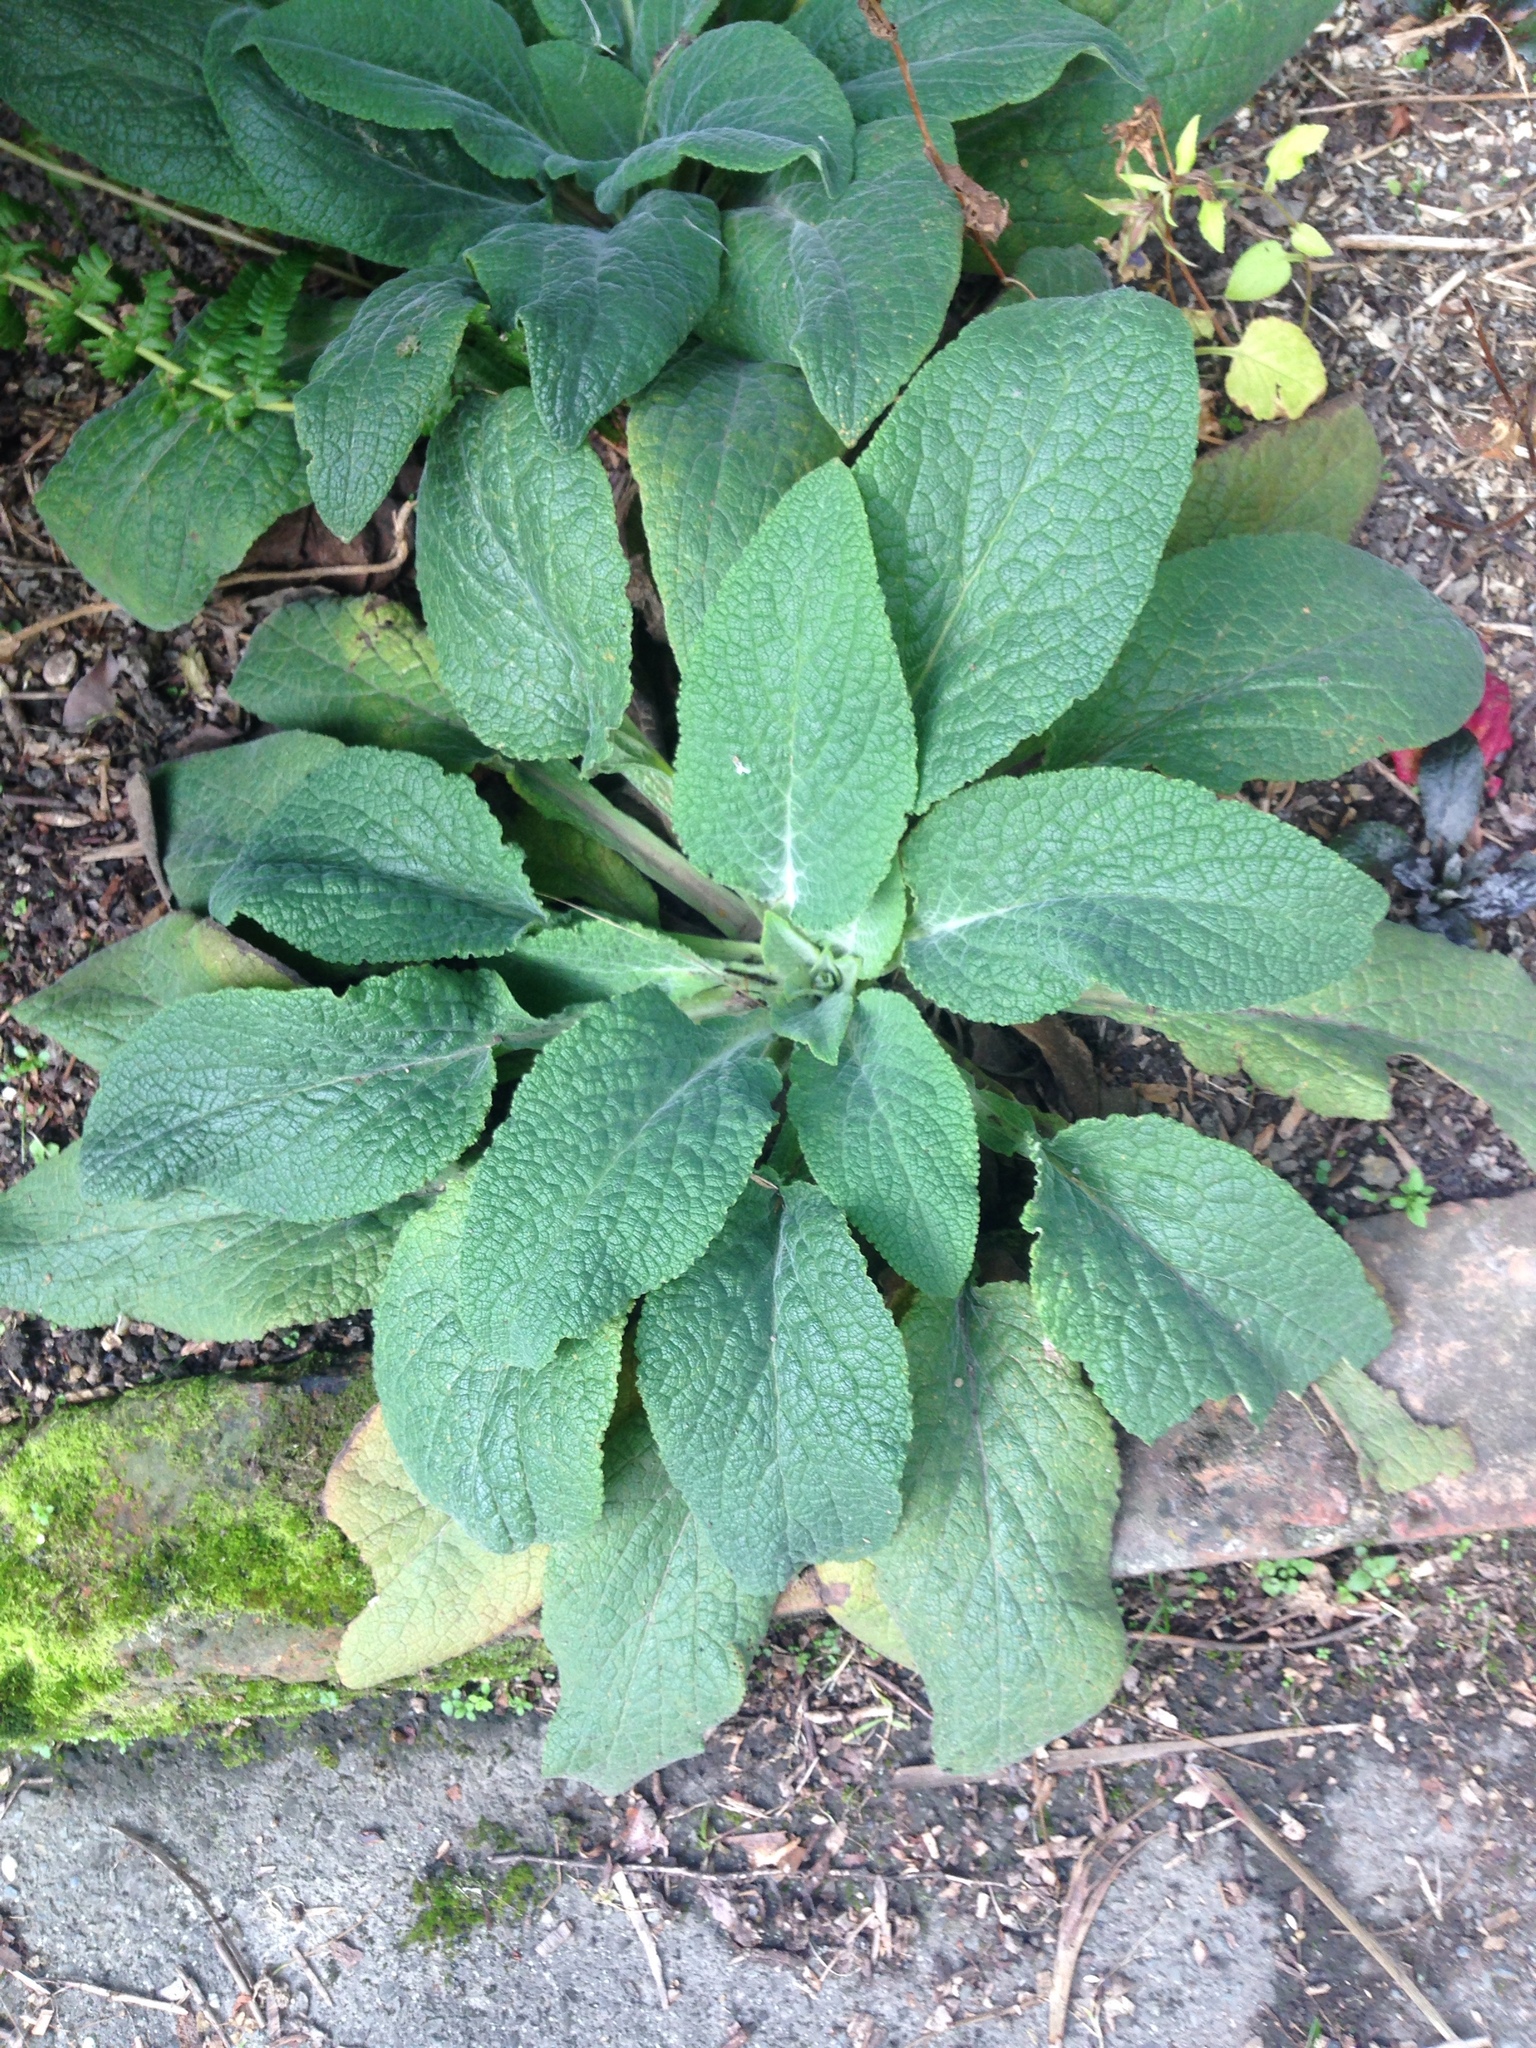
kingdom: Plantae
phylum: Tracheophyta
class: Magnoliopsida
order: Lamiales
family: Plantaginaceae
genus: Digitalis
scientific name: Digitalis purpurea
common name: Foxglove
